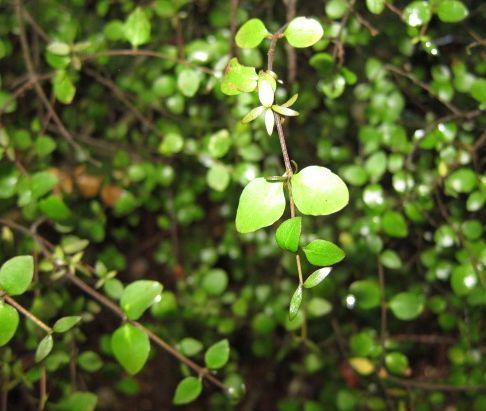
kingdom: Plantae
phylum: Tracheophyta
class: Magnoliopsida
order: Gentianales
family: Rubiaceae
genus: Coprosma
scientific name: Coprosma rhamnoides
